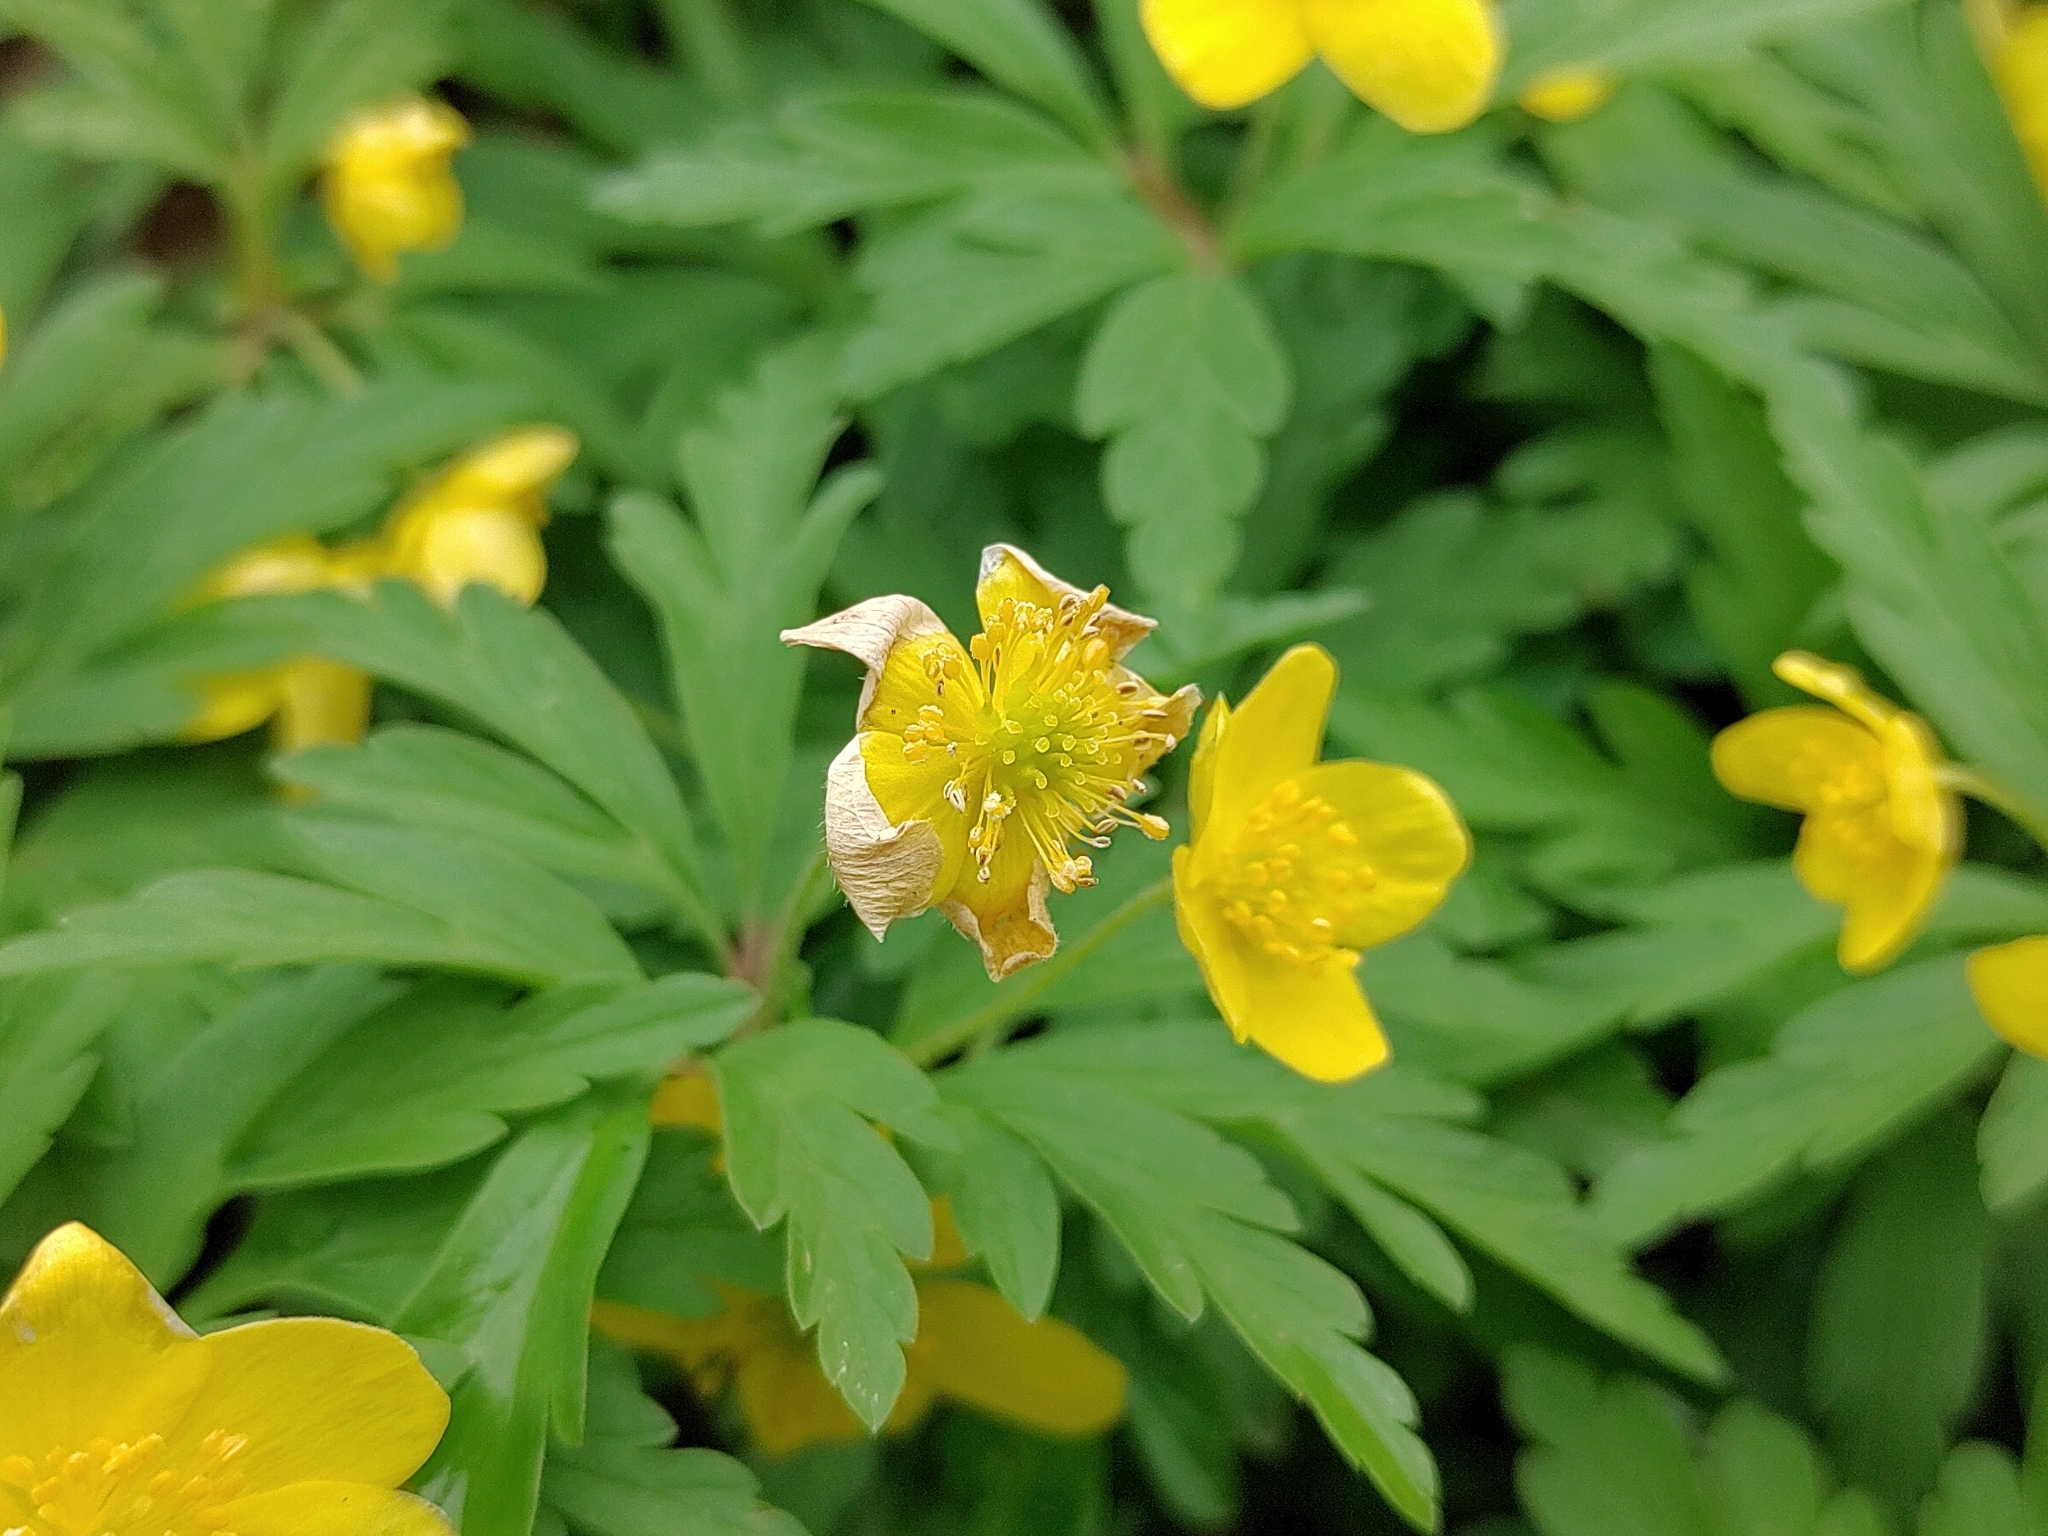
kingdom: Plantae
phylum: Tracheophyta
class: Magnoliopsida
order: Ranunculales
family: Ranunculaceae
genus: Anemone
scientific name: Anemone ranunculoides
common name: Yellow anemone
